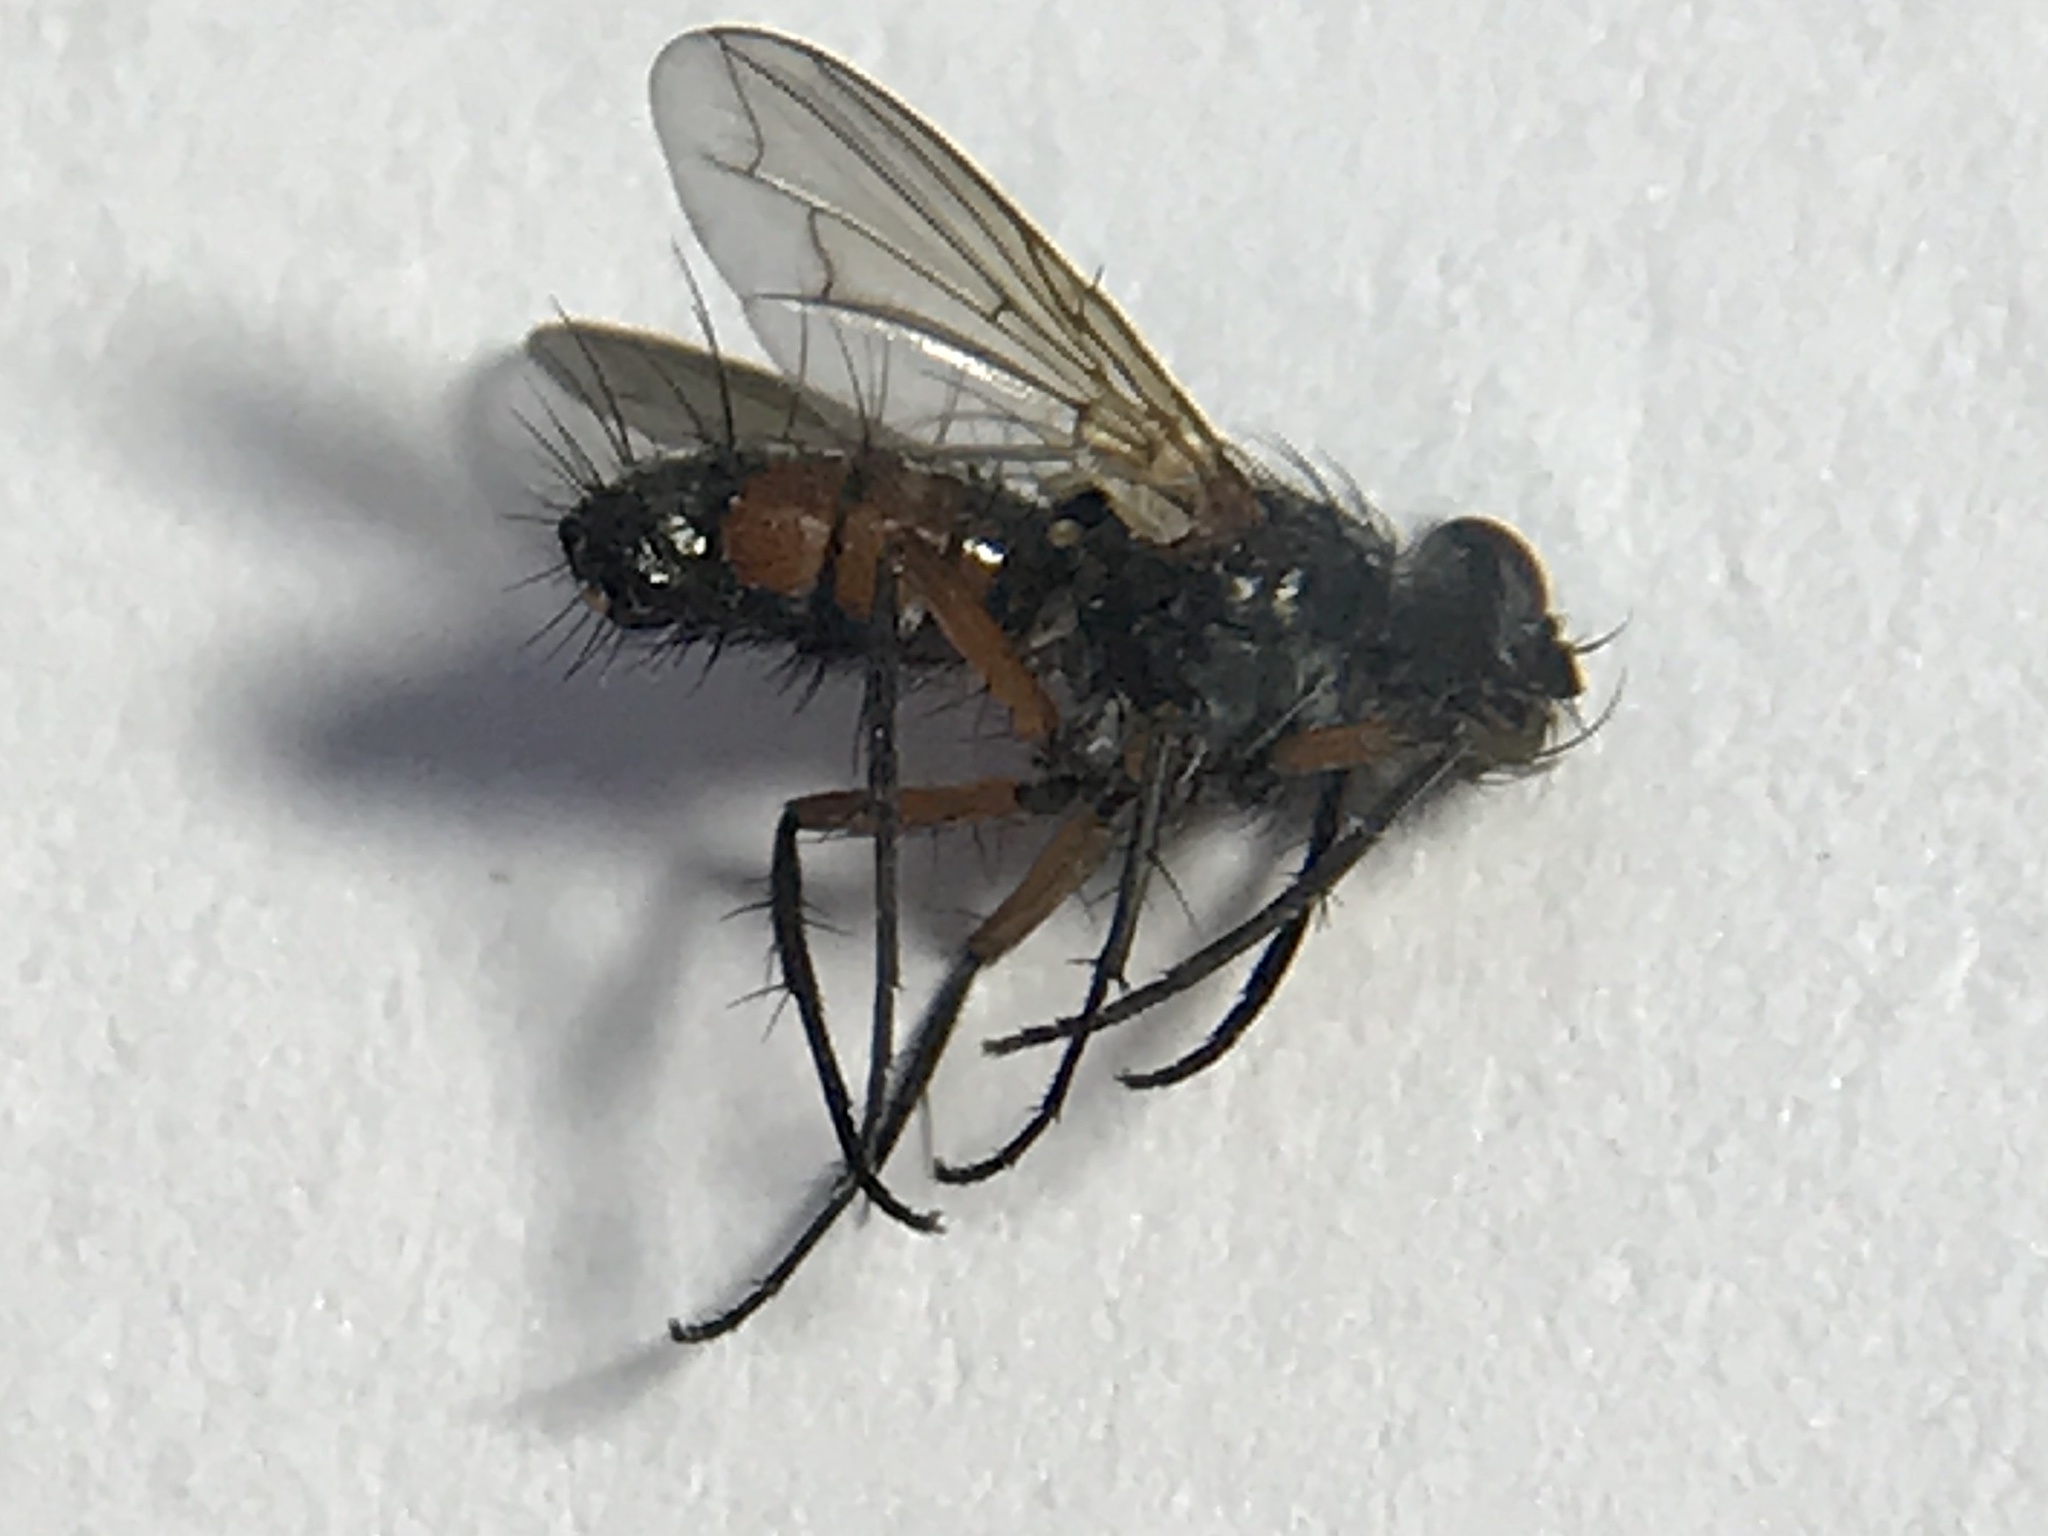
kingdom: Animalia
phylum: Arthropoda
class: Insecta
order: Diptera
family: Tachinidae
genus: Mintho
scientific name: Mintho rufiventris
